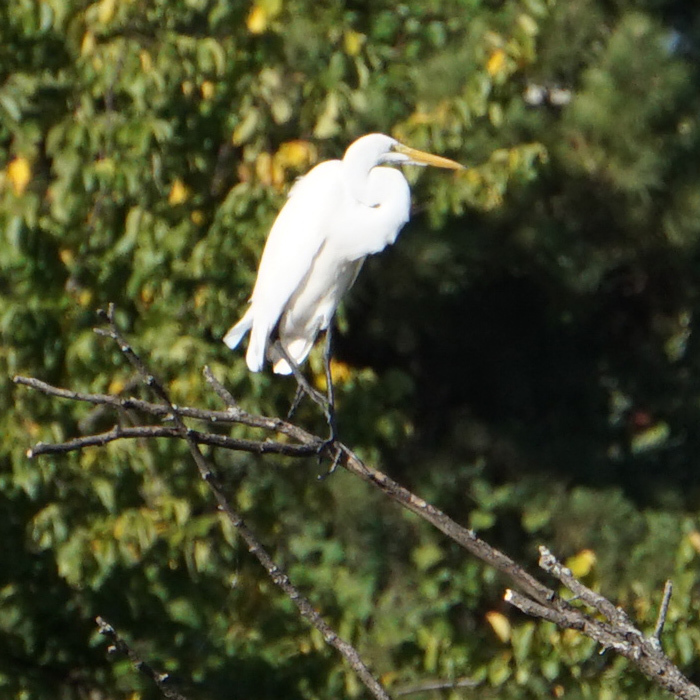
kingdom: Animalia
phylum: Chordata
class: Aves
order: Pelecaniformes
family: Ardeidae
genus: Ardea
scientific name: Ardea alba
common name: Great egret
